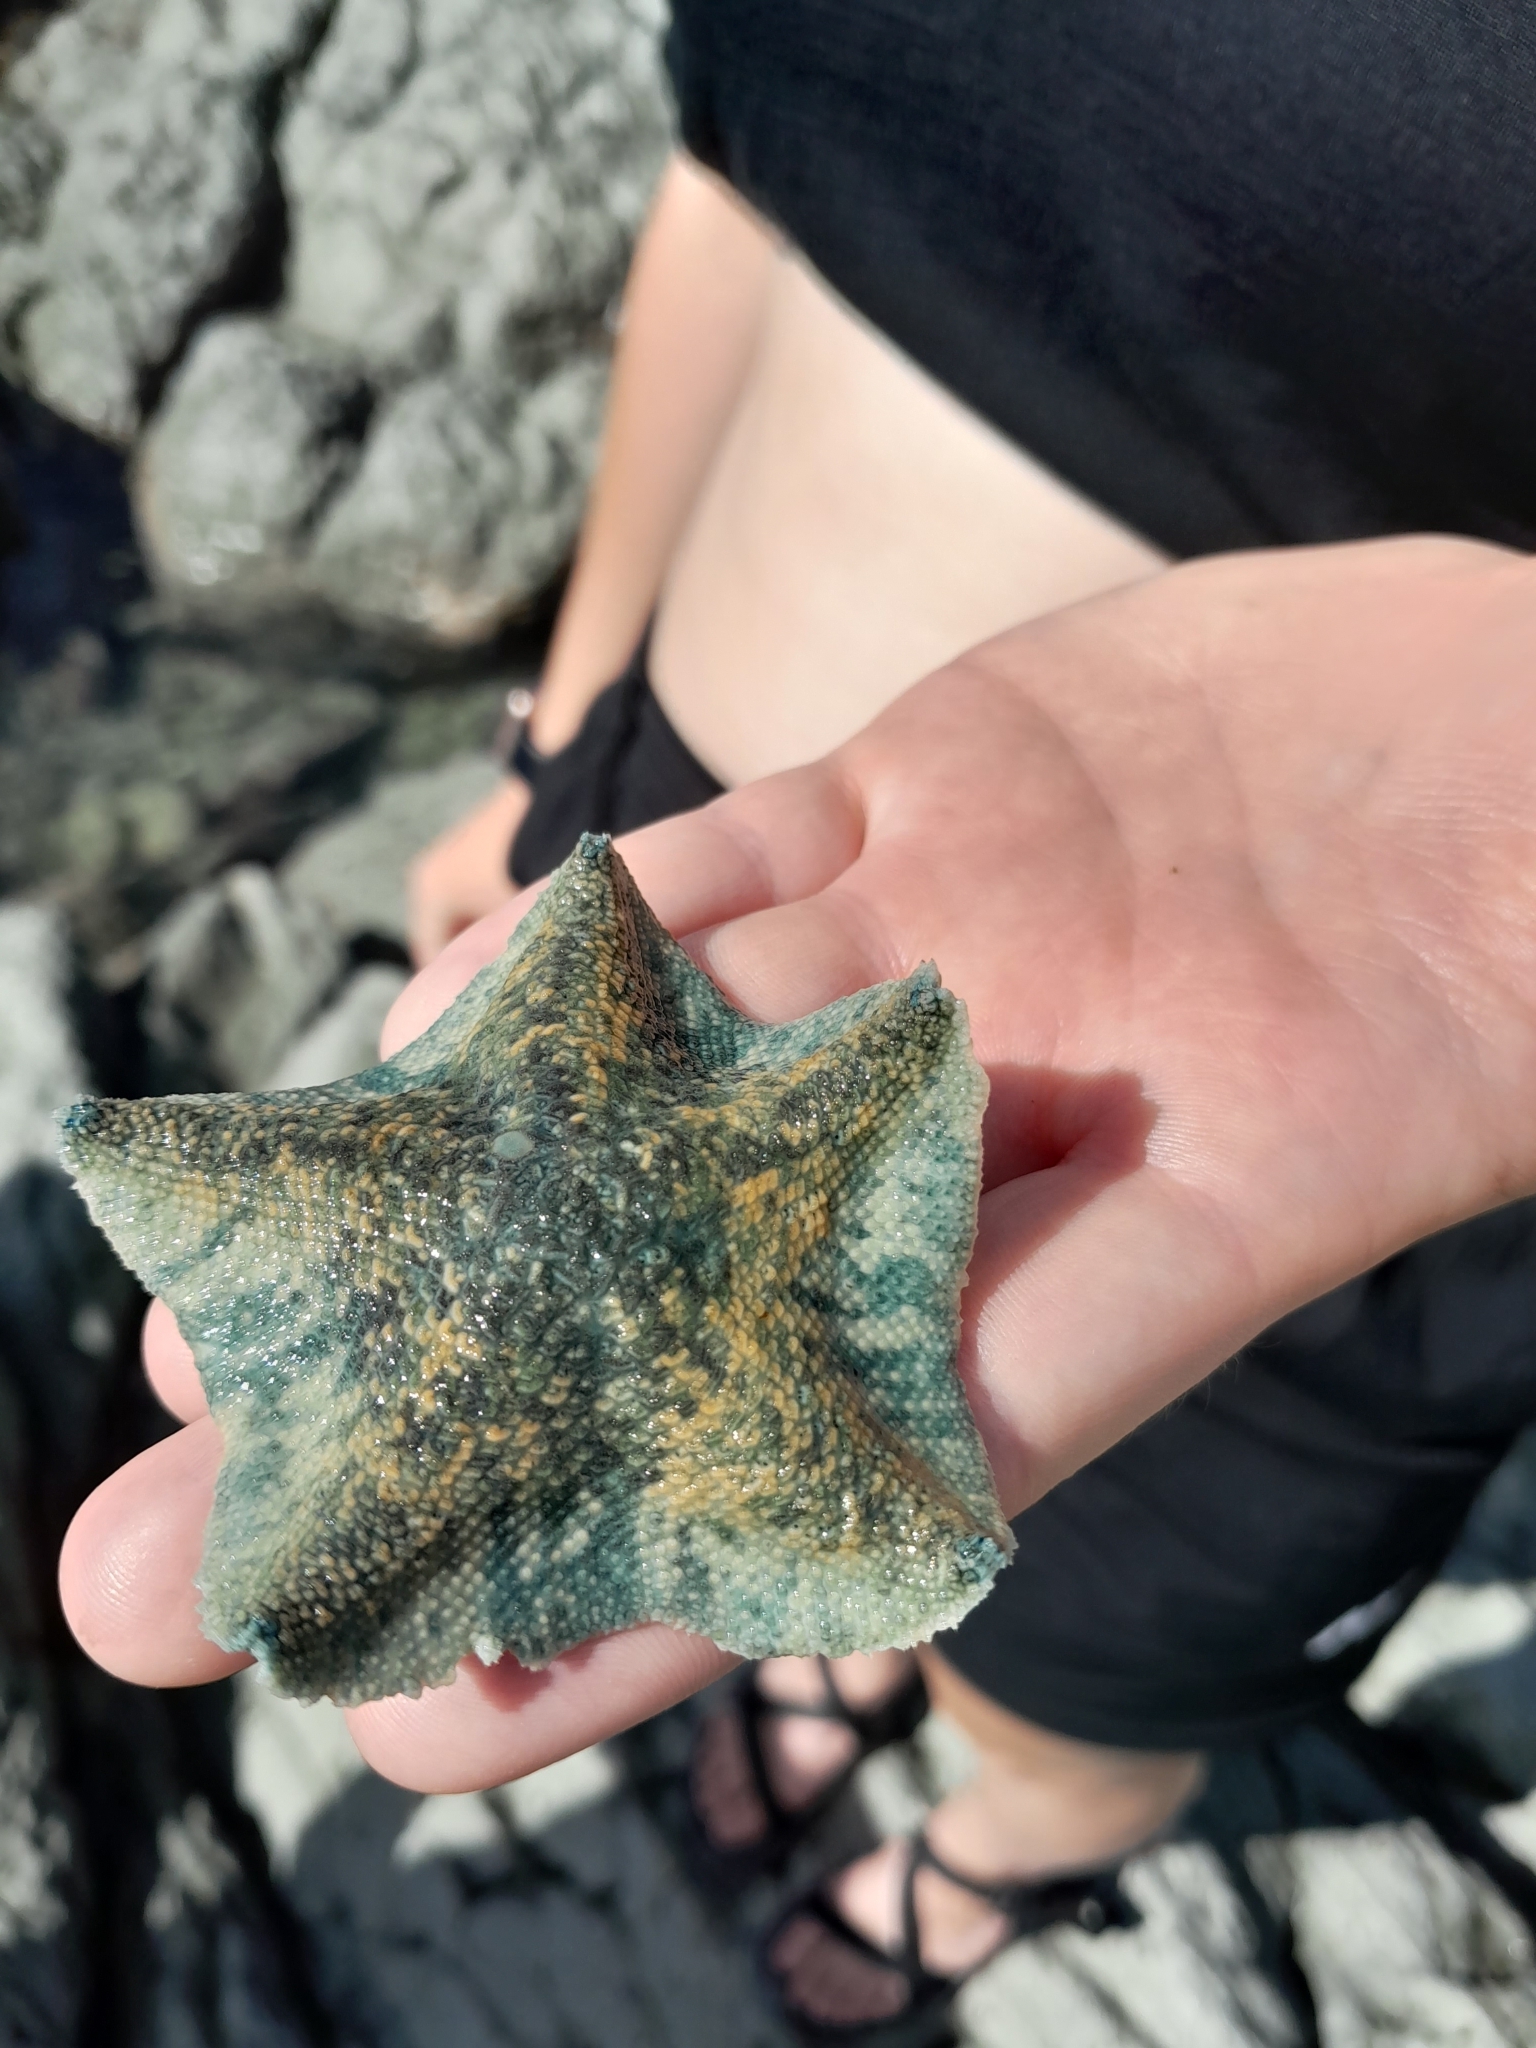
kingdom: Animalia
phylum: Echinodermata
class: Asteroidea
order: Valvatida
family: Asterinidae
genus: Patiriella
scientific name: Patiriella regularis
